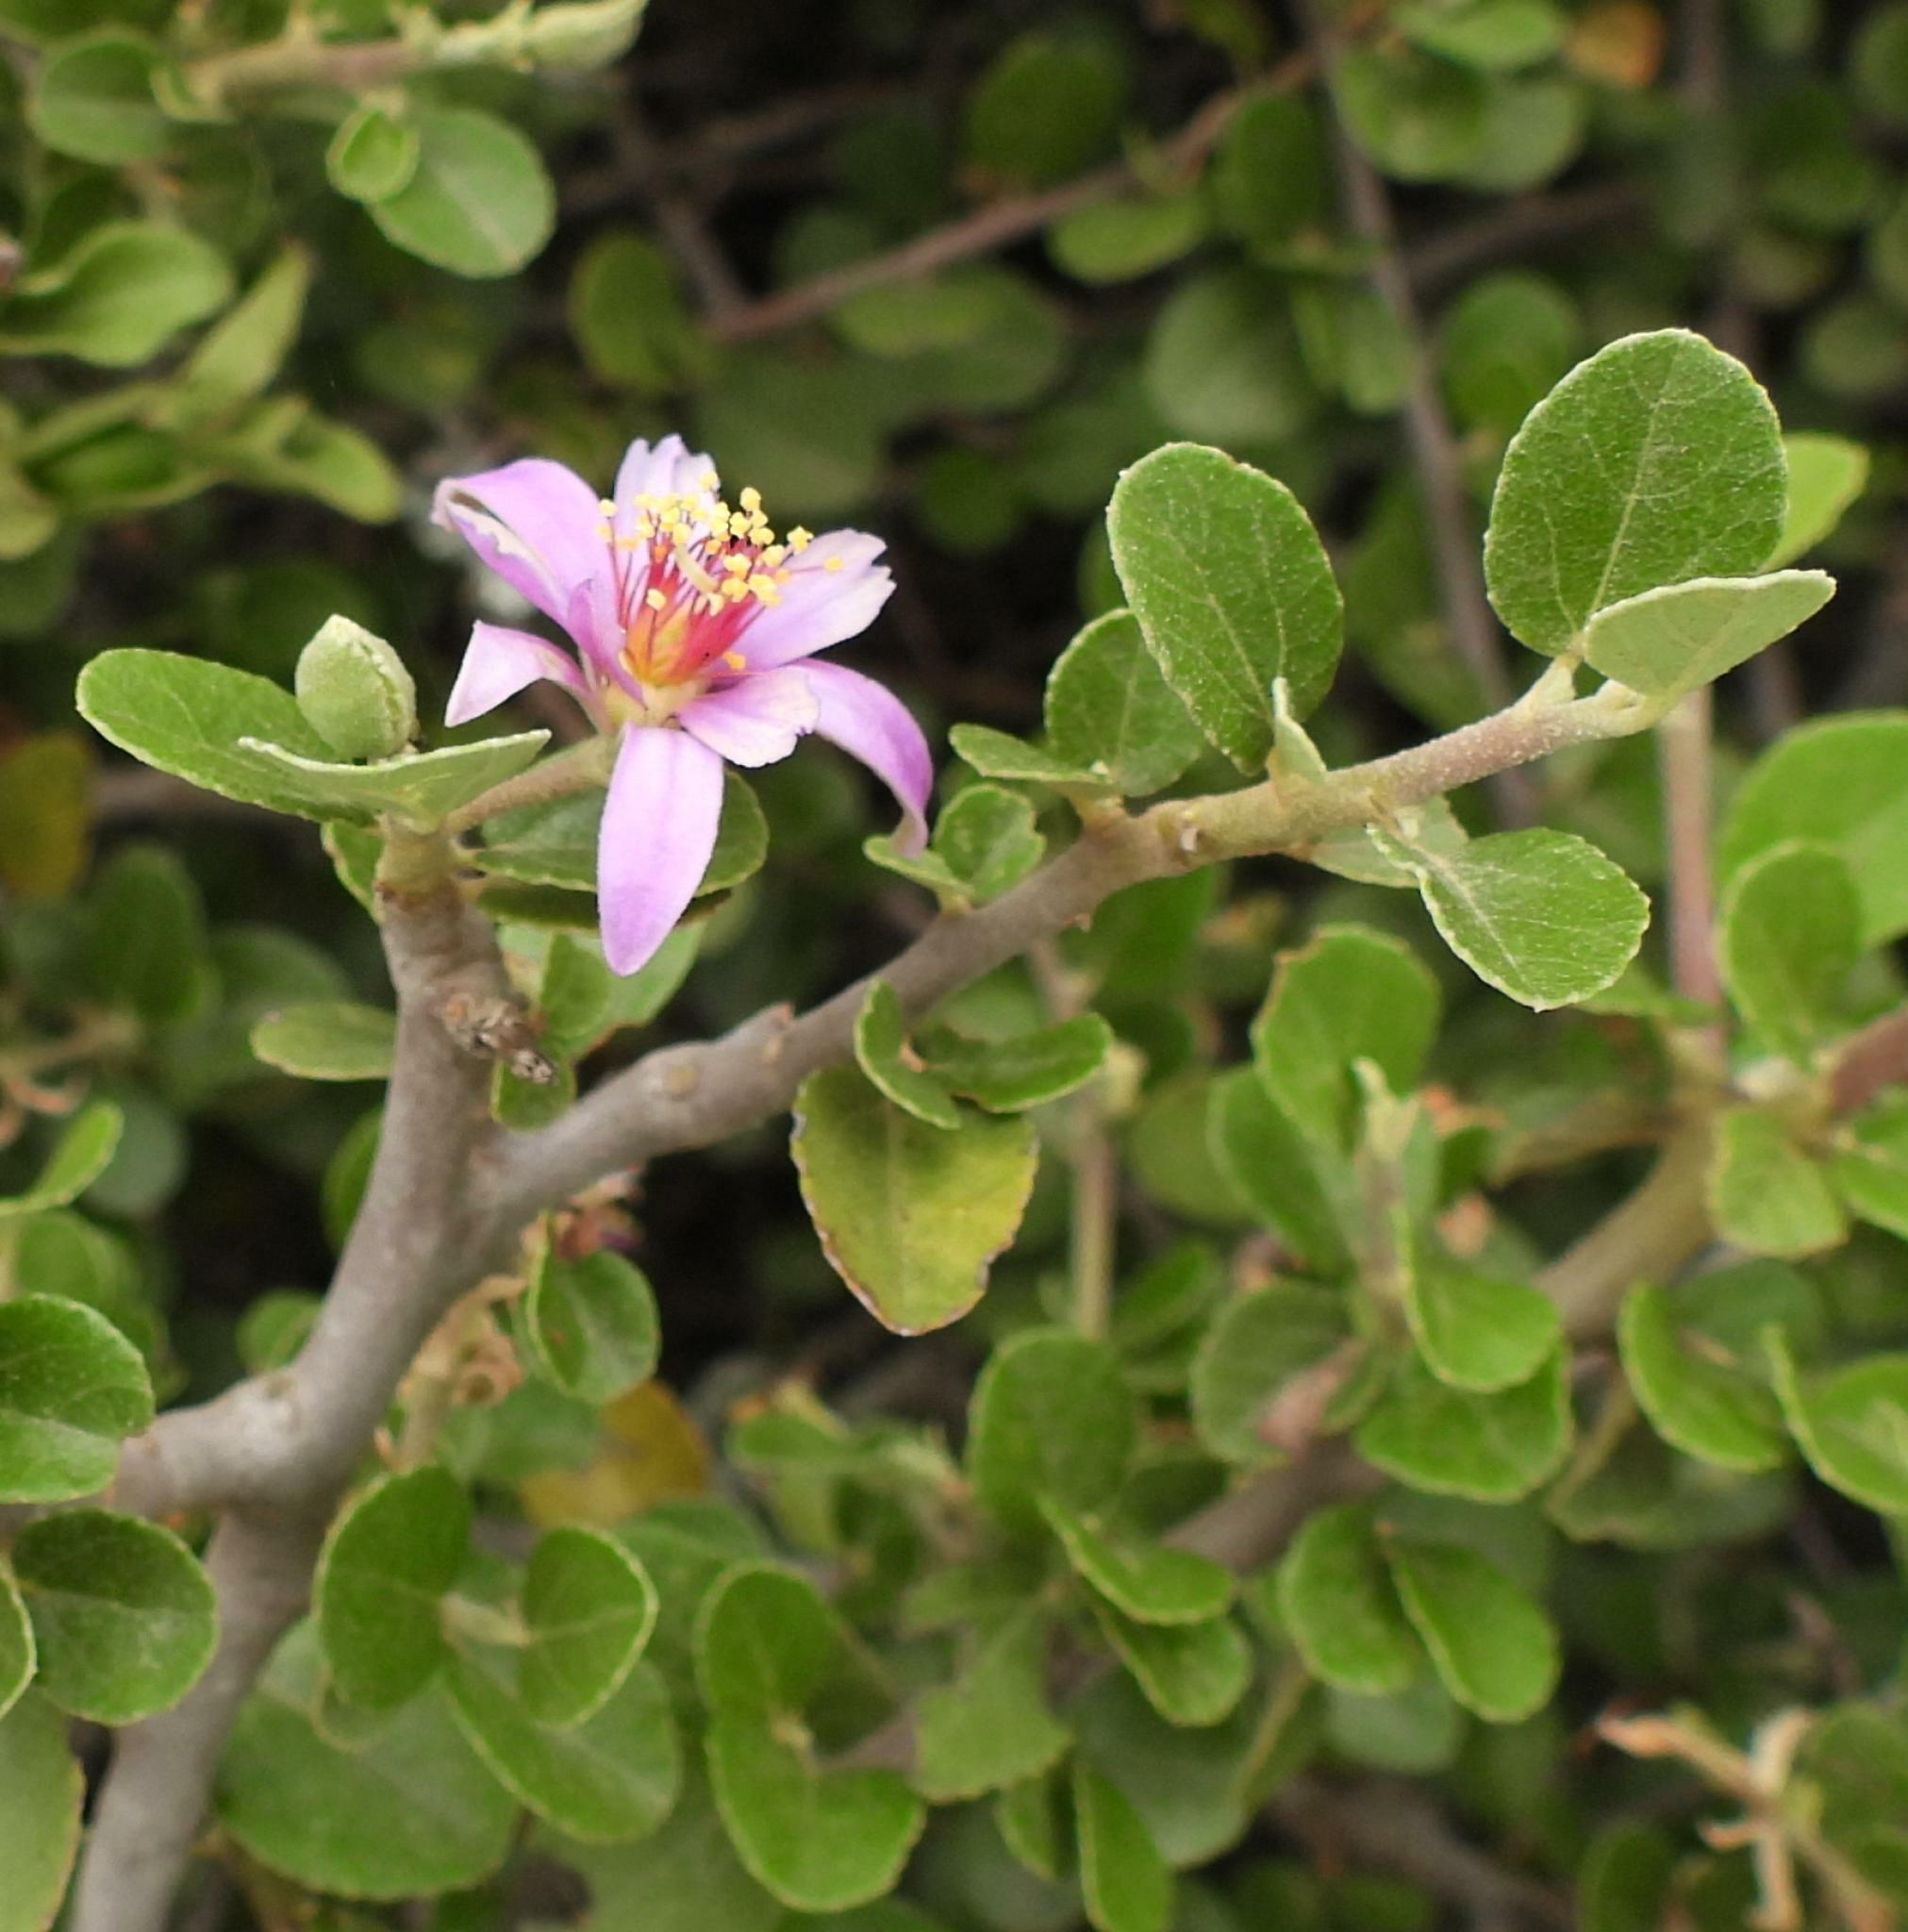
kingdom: Plantae
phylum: Tracheophyta
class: Magnoliopsida
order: Malvales
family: Malvaceae
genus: Grewia
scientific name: Grewia robusta
